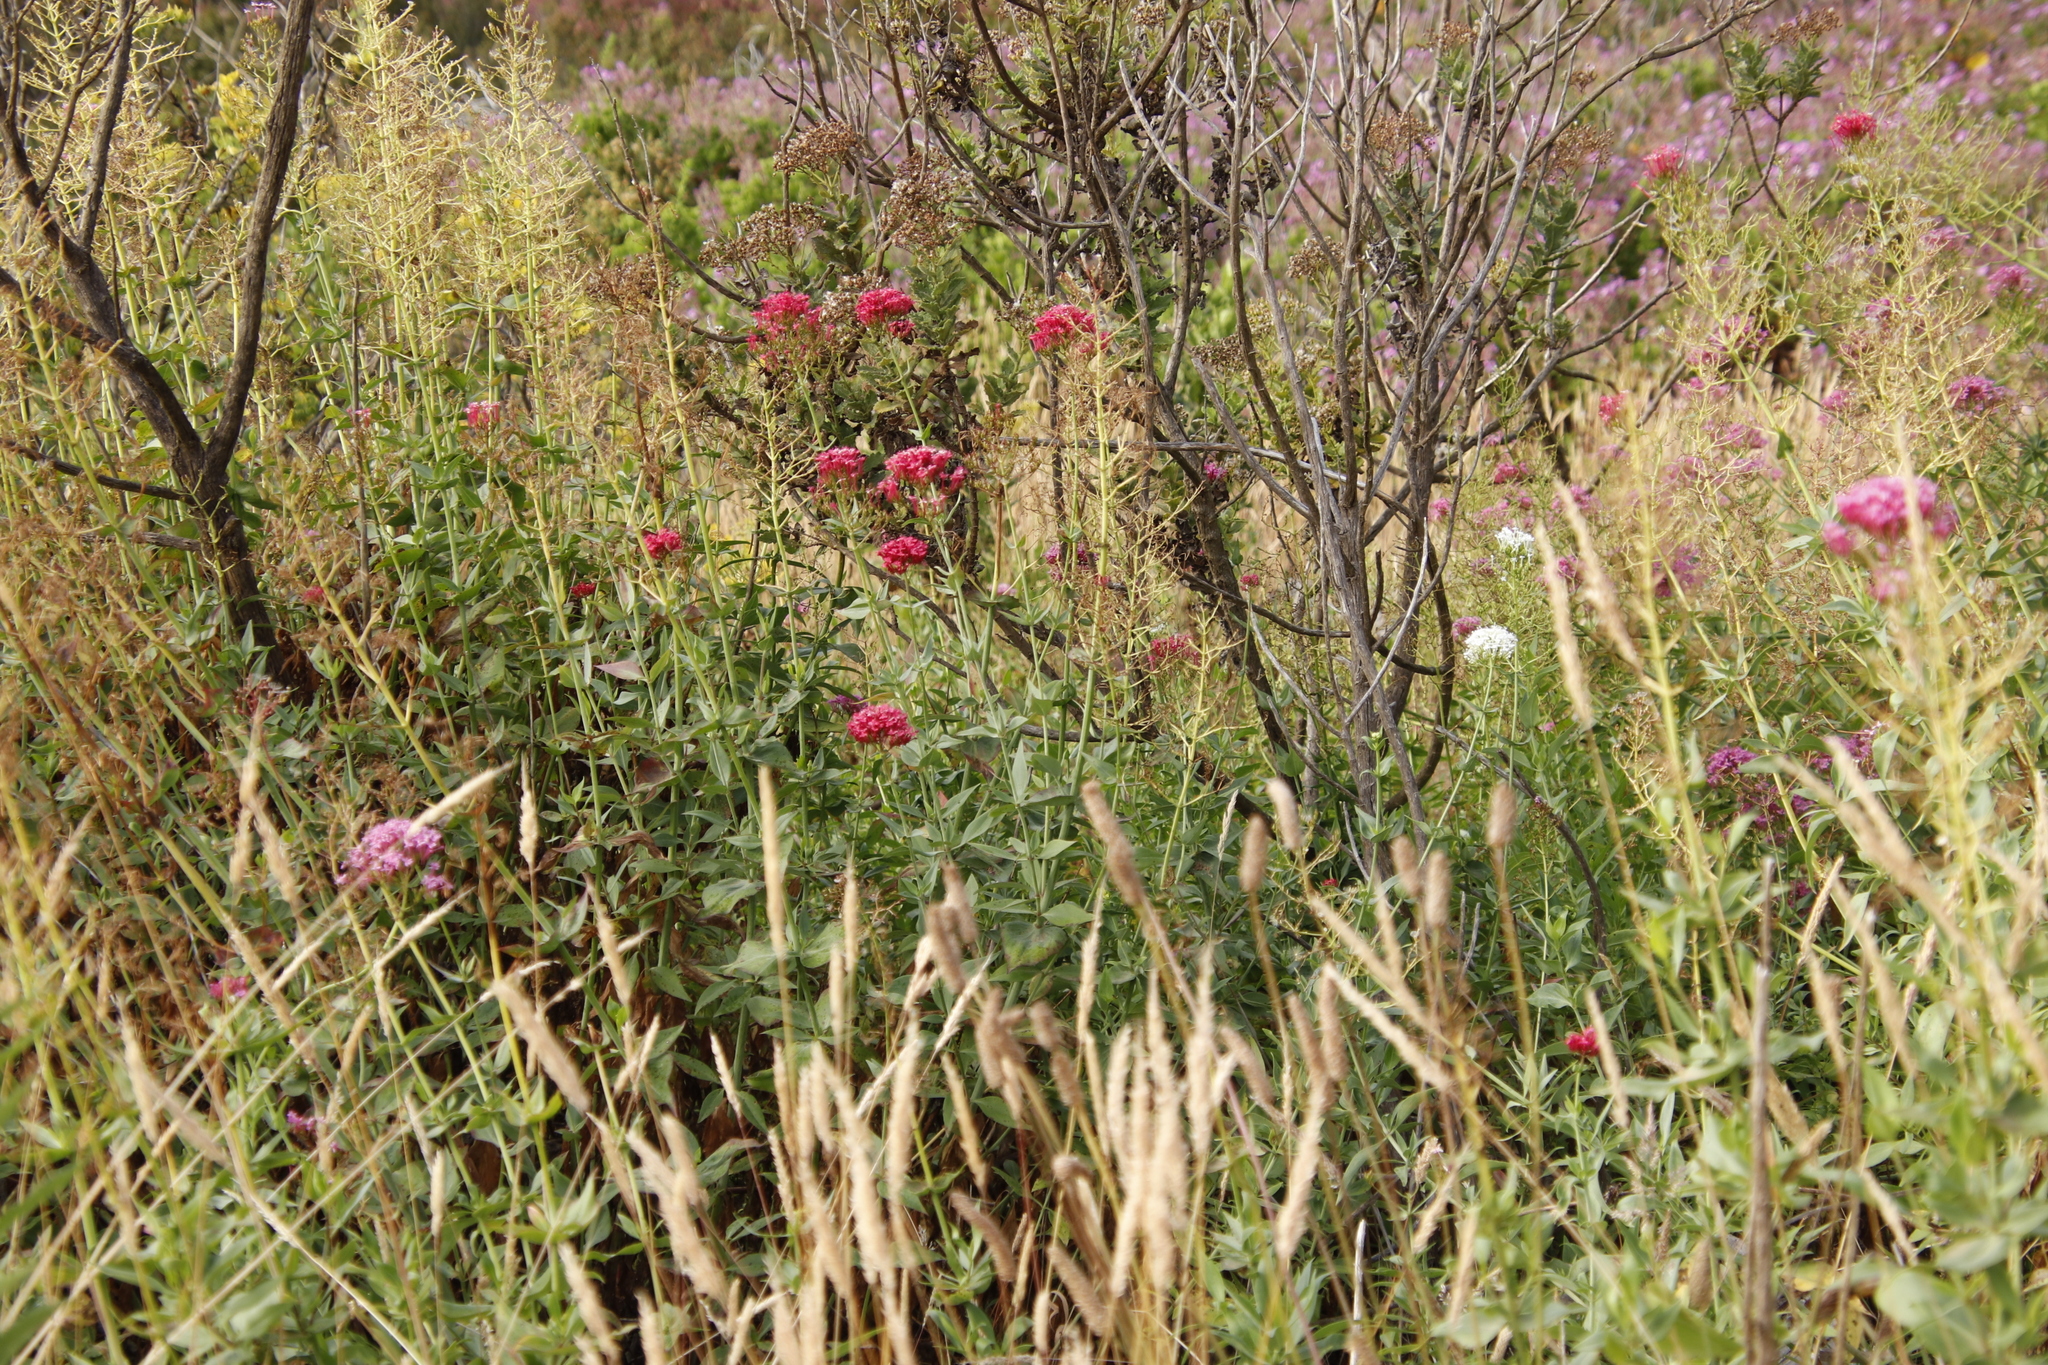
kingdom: Plantae
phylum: Tracheophyta
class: Magnoliopsida
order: Dipsacales
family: Caprifoliaceae
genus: Centranthus
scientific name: Centranthus ruber
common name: Red valerian
